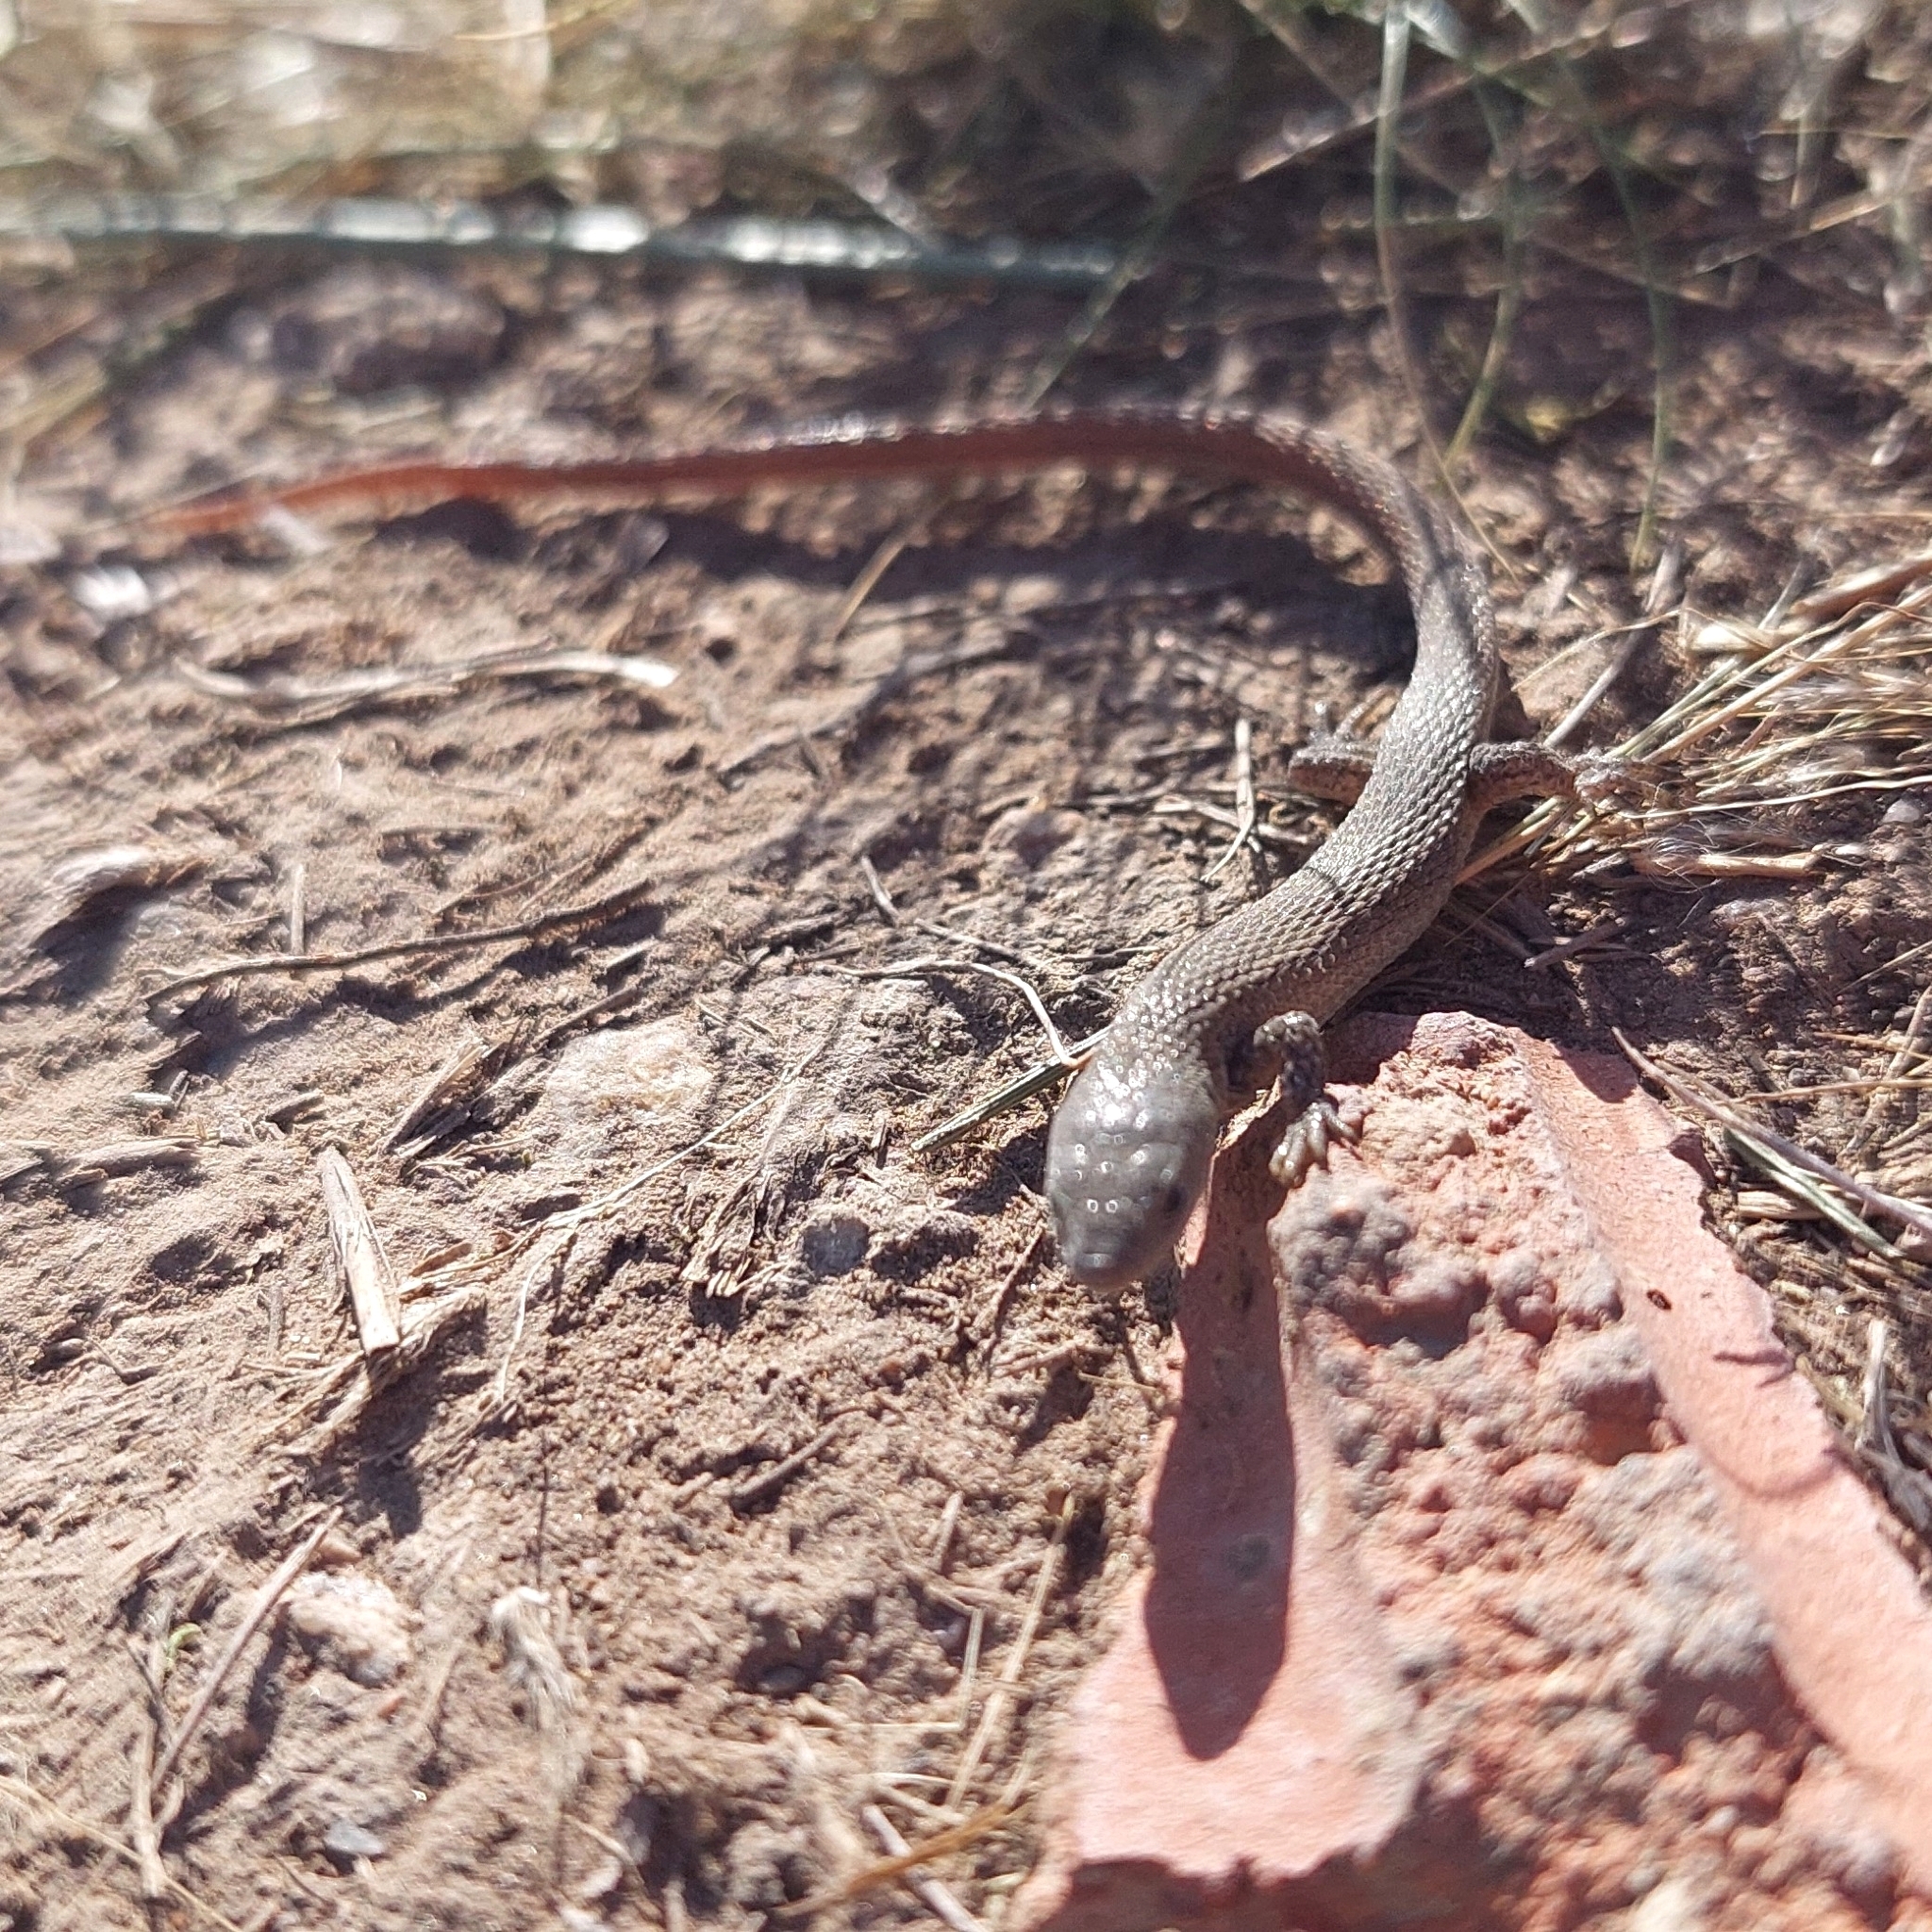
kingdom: Animalia
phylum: Chordata
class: Squamata
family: Gymnophthalmidae
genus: Cercosaura
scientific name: Cercosaura schreibersii
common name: Schreibers' many-fingered teiid
